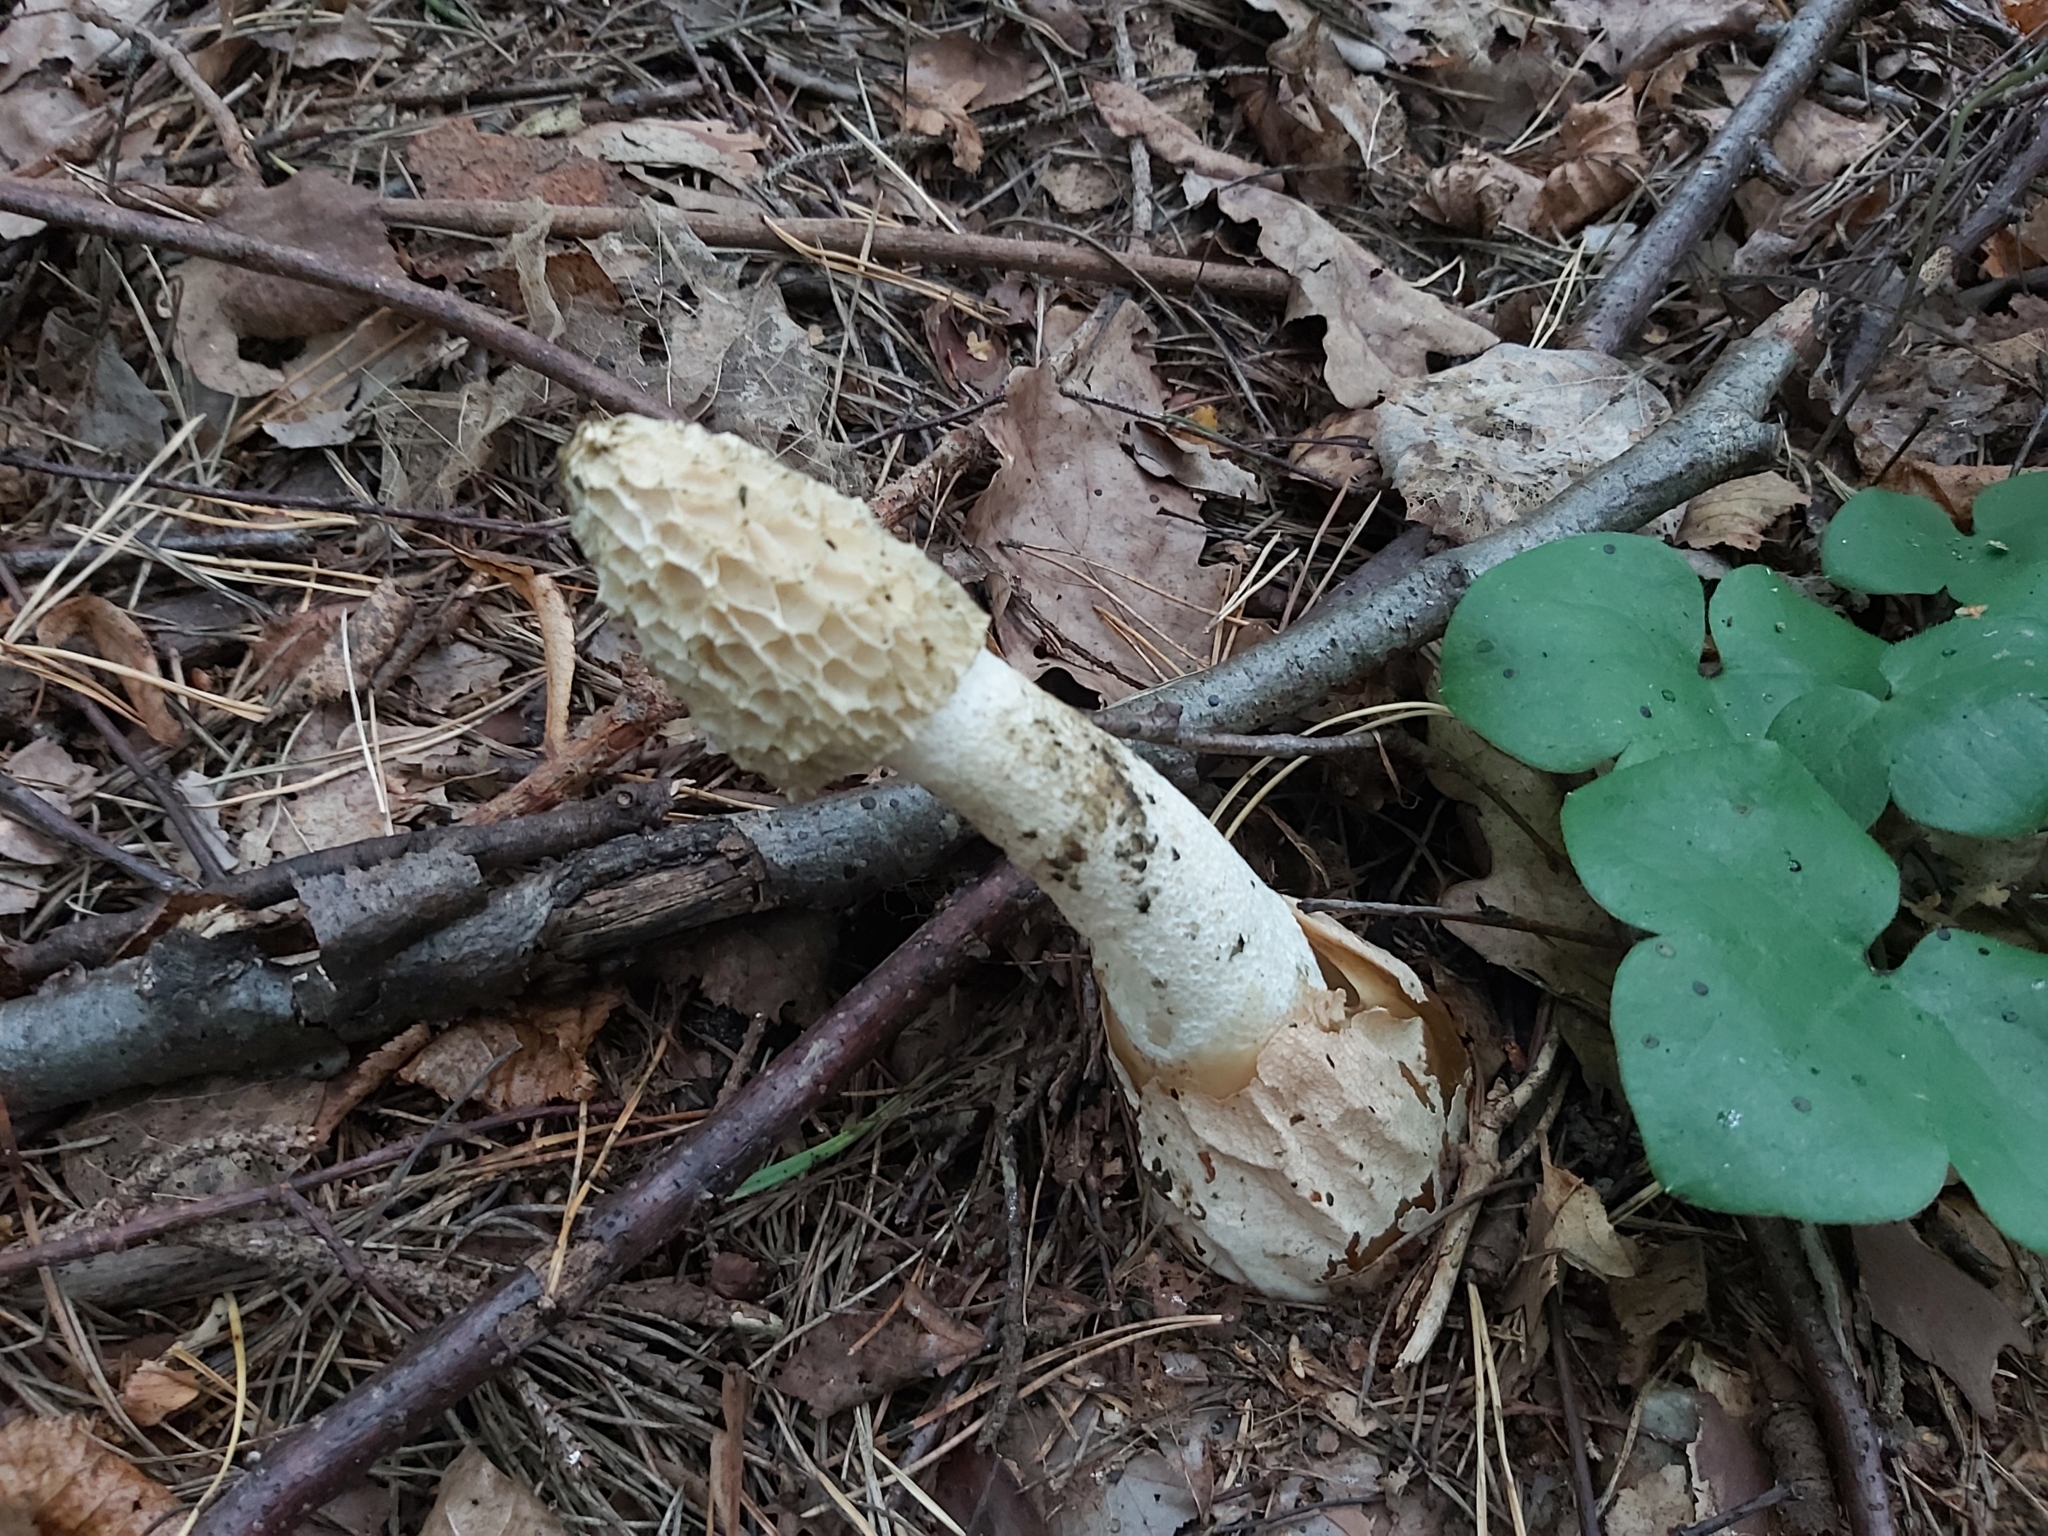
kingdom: Fungi
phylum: Basidiomycota
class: Agaricomycetes
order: Phallales
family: Phallaceae
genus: Phallus
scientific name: Phallus impudicus
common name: Common stinkhorn
